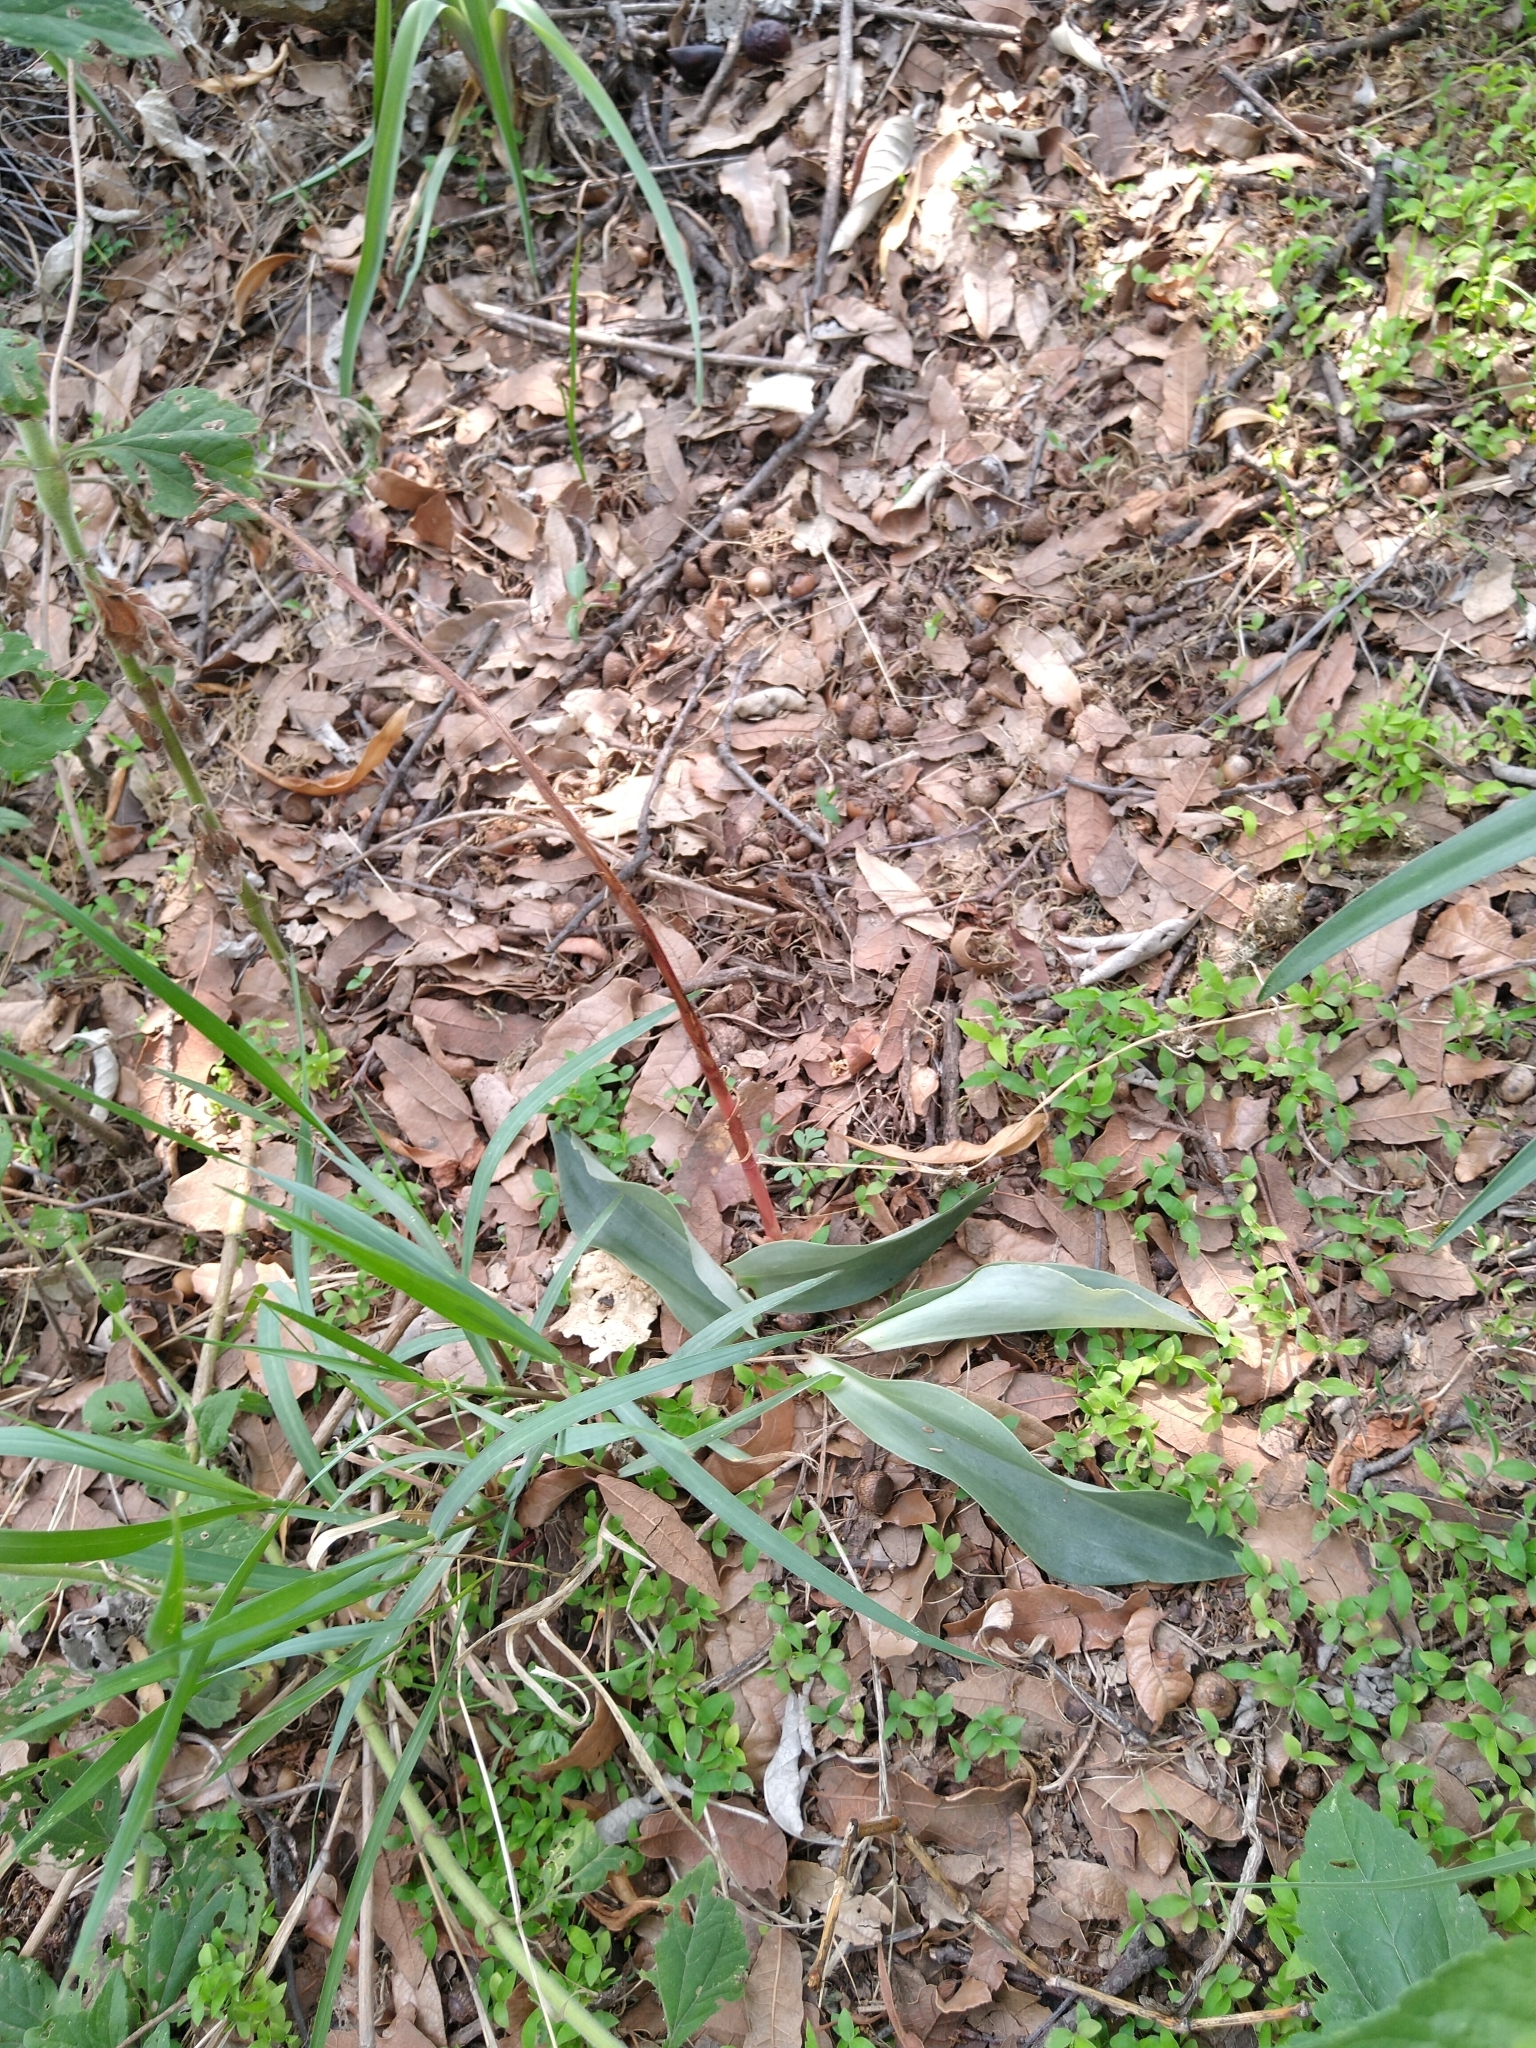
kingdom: Plantae
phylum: Tracheophyta
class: Liliopsida
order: Asparagales
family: Orchidaceae
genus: Sarcoglottis
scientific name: Sarcoglottis schaffneri
